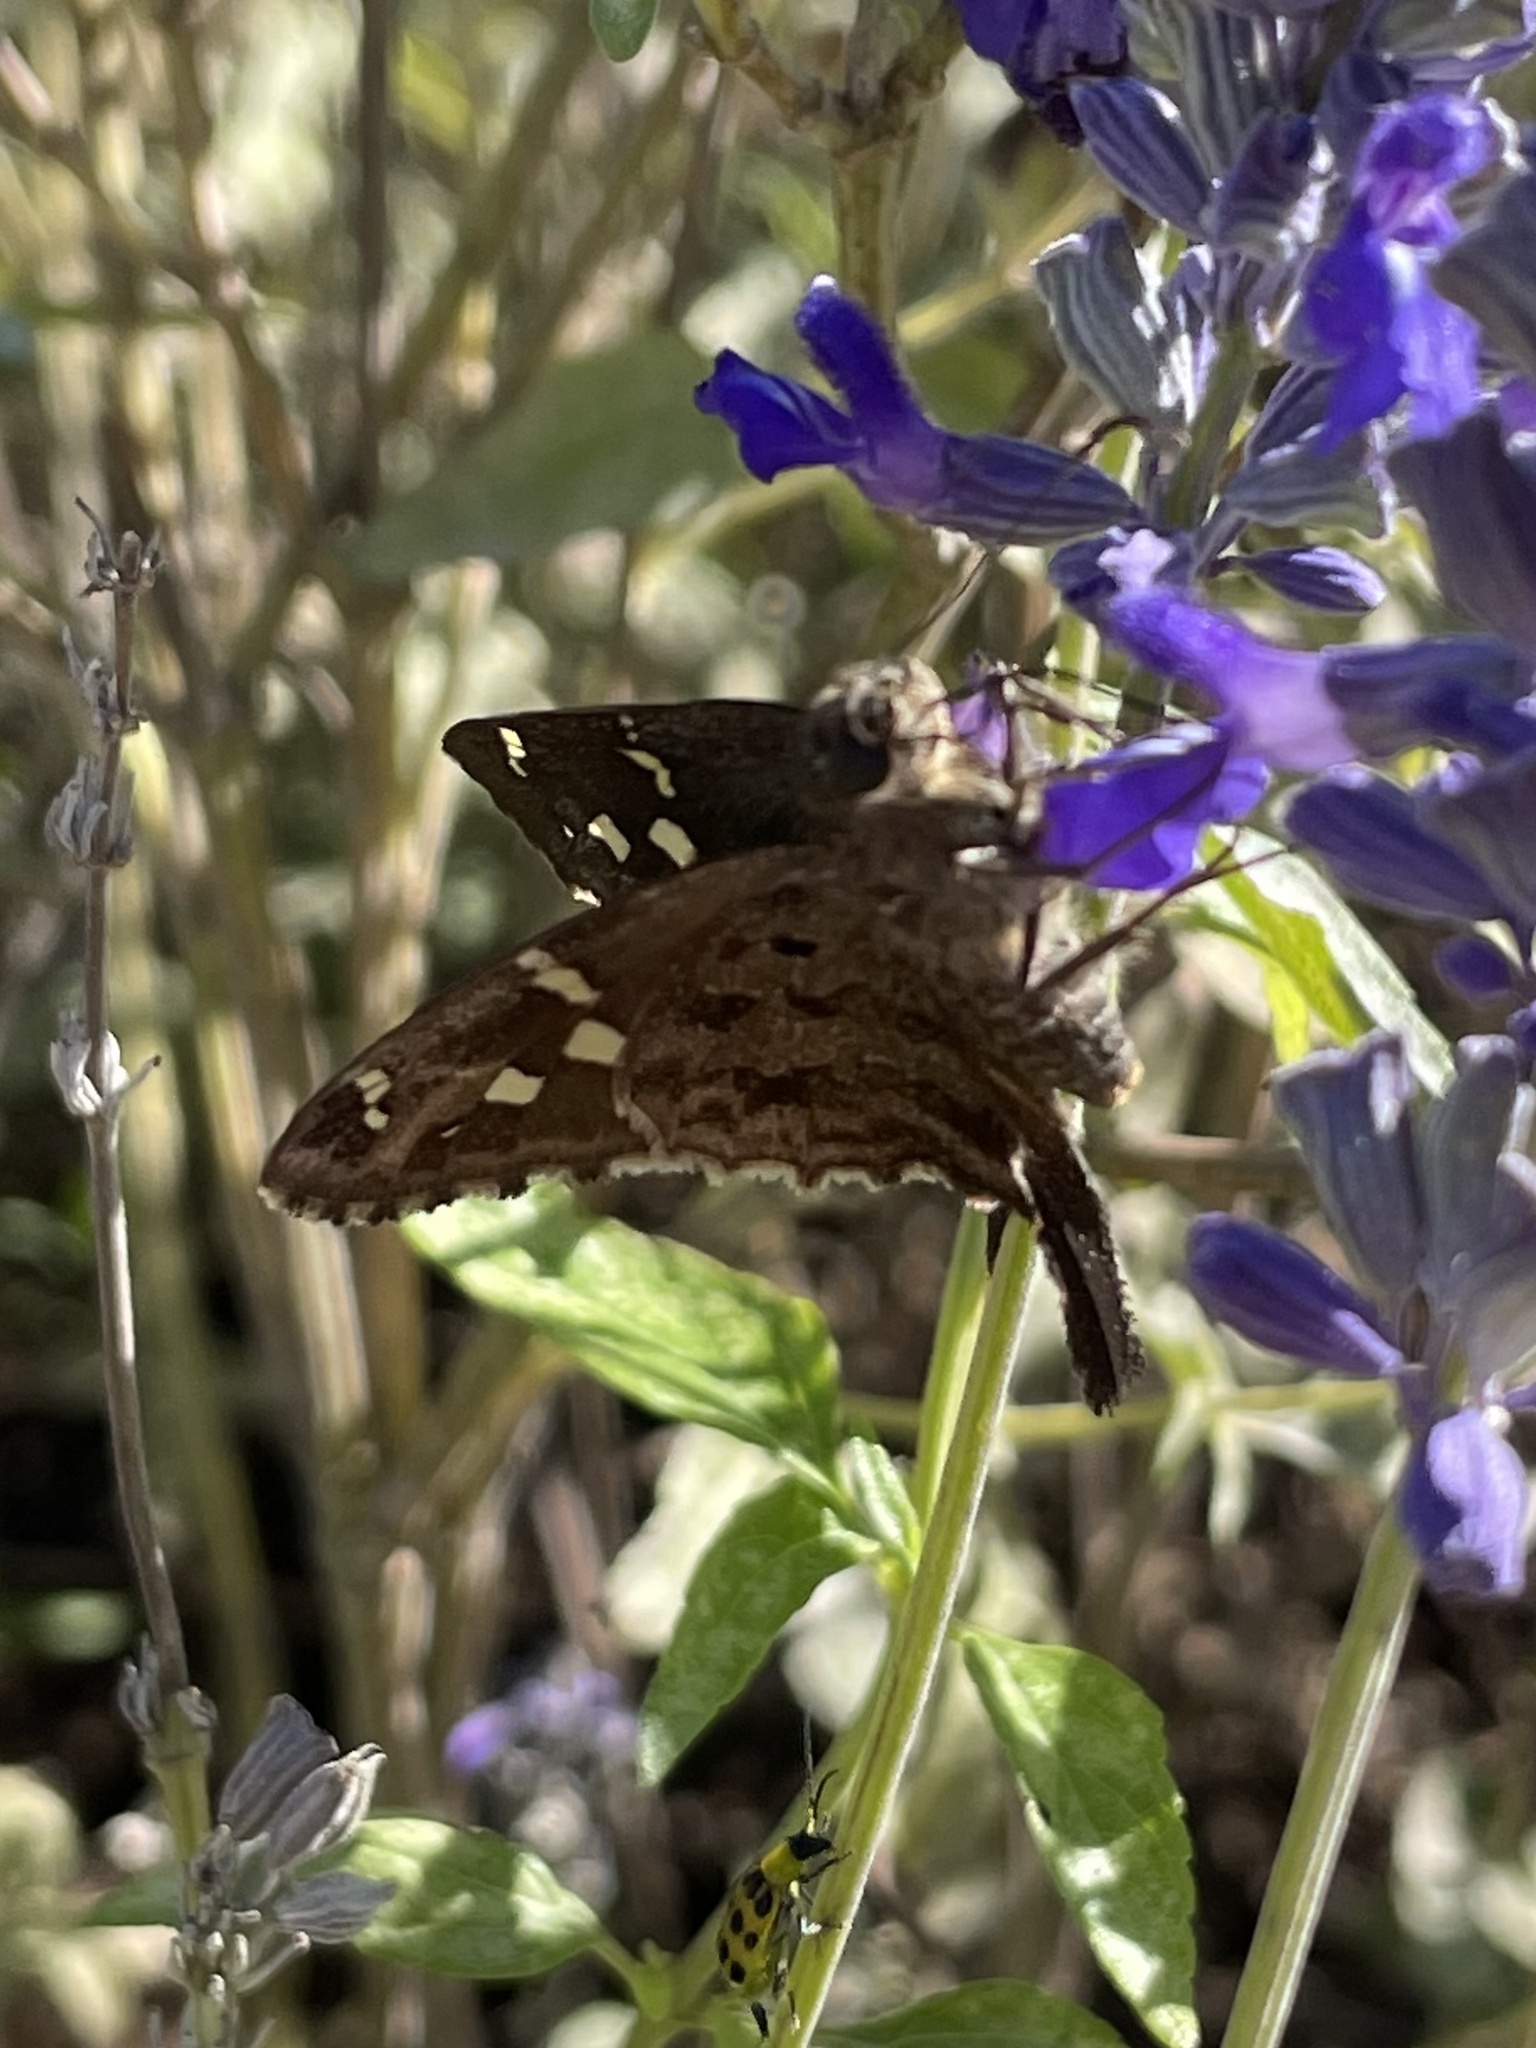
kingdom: Animalia
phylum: Arthropoda
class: Insecta
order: Lepidoptera
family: Hesperiidae
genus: Thorybes
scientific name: Thorybes
